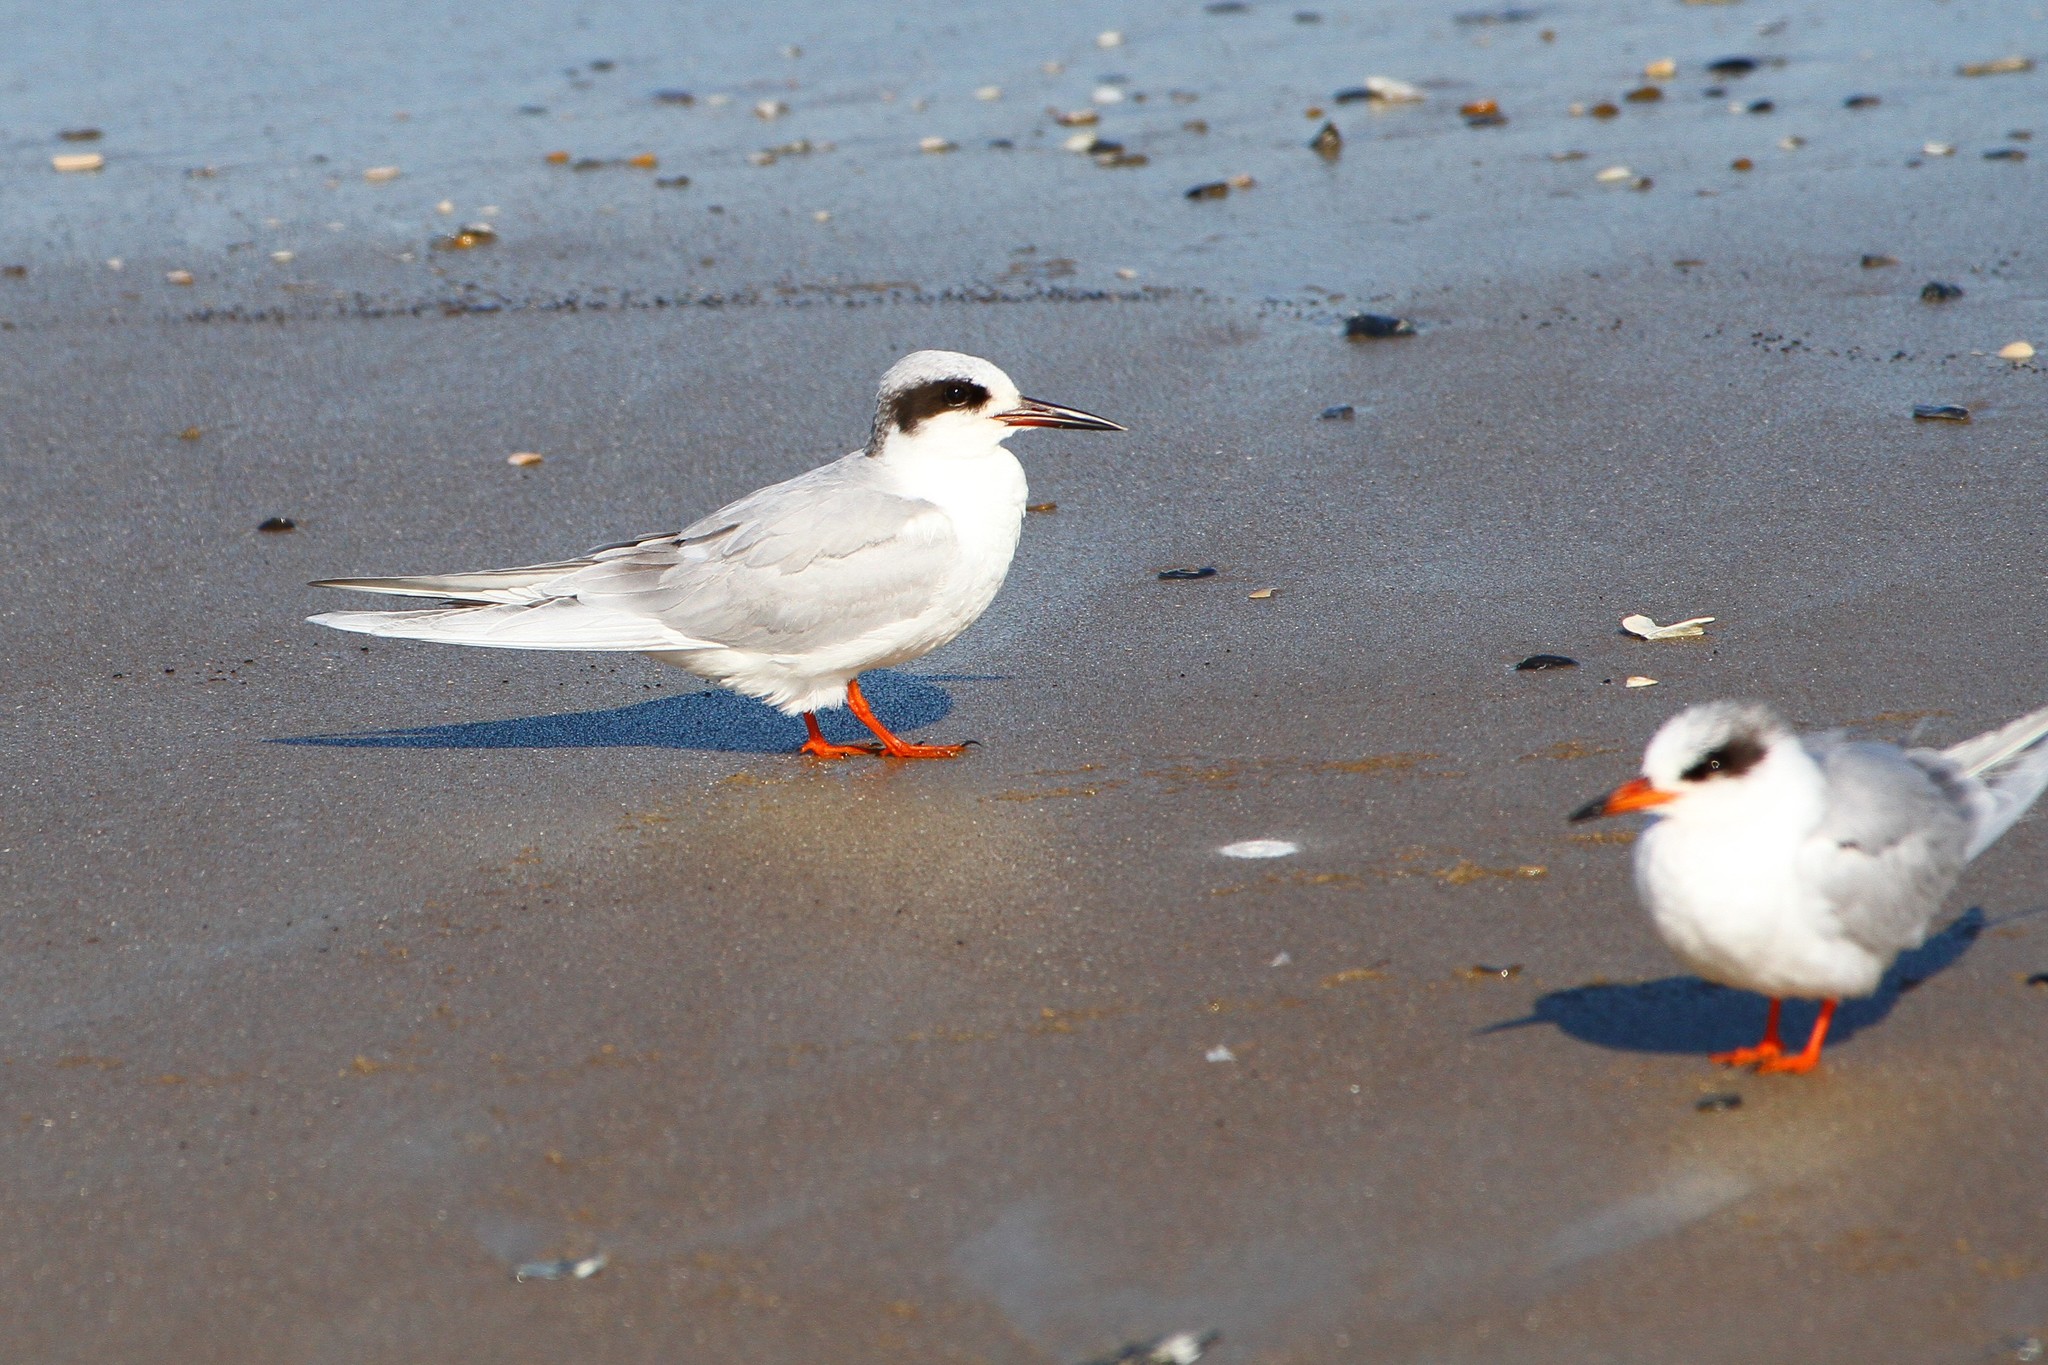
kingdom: Animalia
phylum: Chordata
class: Aves
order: Charadriiformes
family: Laridae
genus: Sterna
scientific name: Sterna forsteri
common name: Forster's tern
